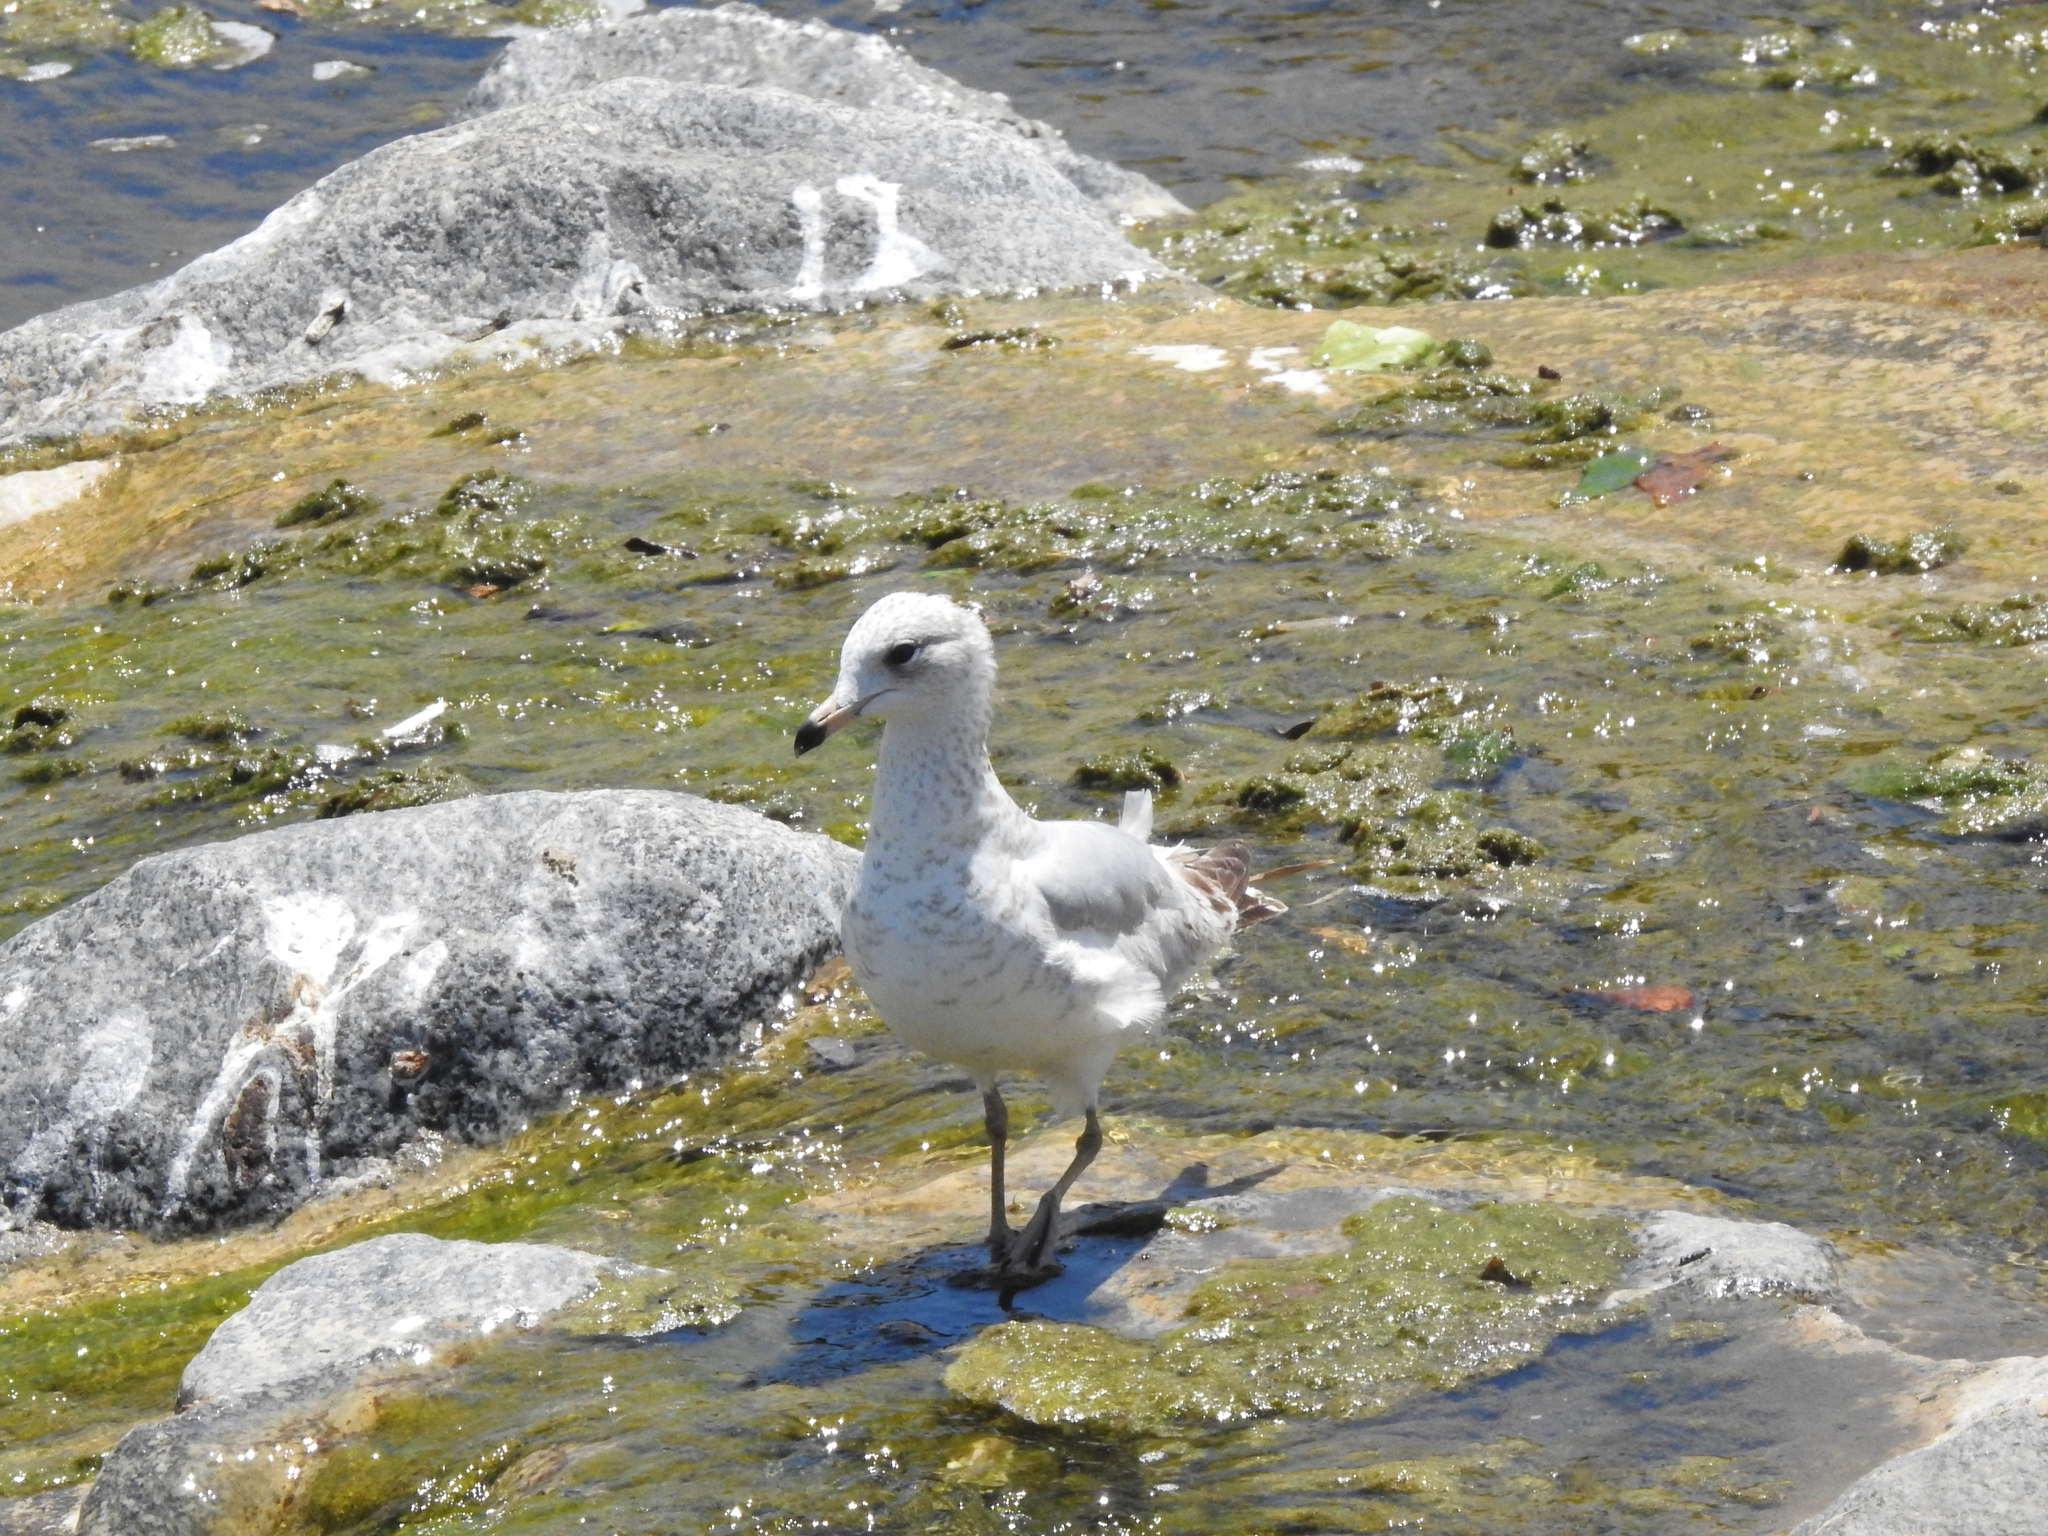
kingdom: Animalia
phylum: Chordata
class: Aves
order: Charadriiformes
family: Laridae
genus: Larus
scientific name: Larus delawarensis
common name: Ring-billed gull
